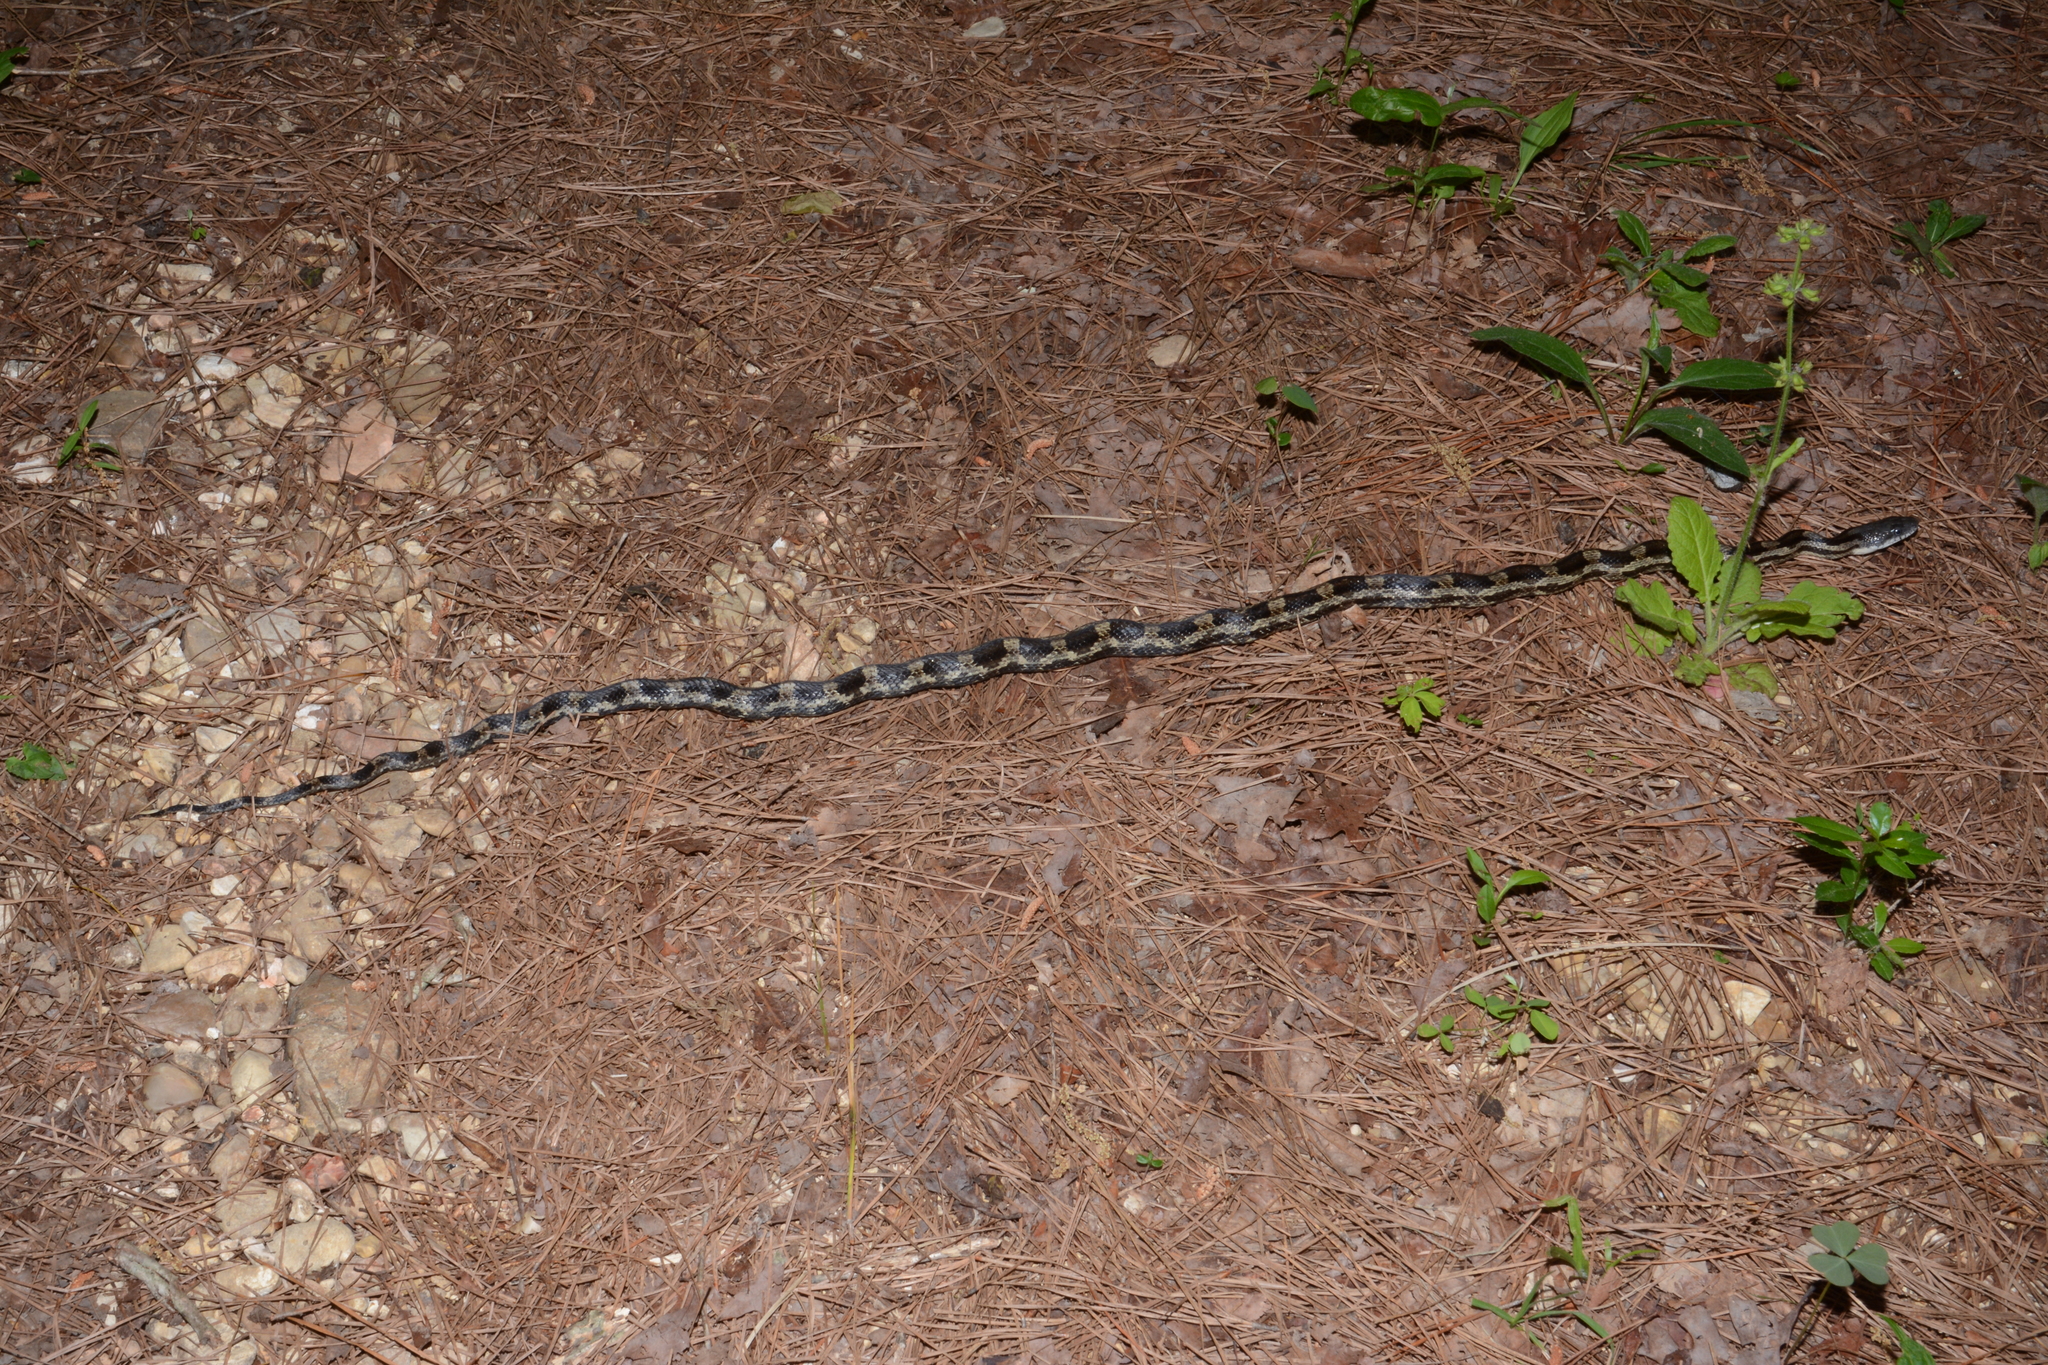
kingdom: Animalia
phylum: Chordata
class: Squamata
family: Colubridae
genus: Pantherophis
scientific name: Pantherophis spiloides
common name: Gray rat snake
